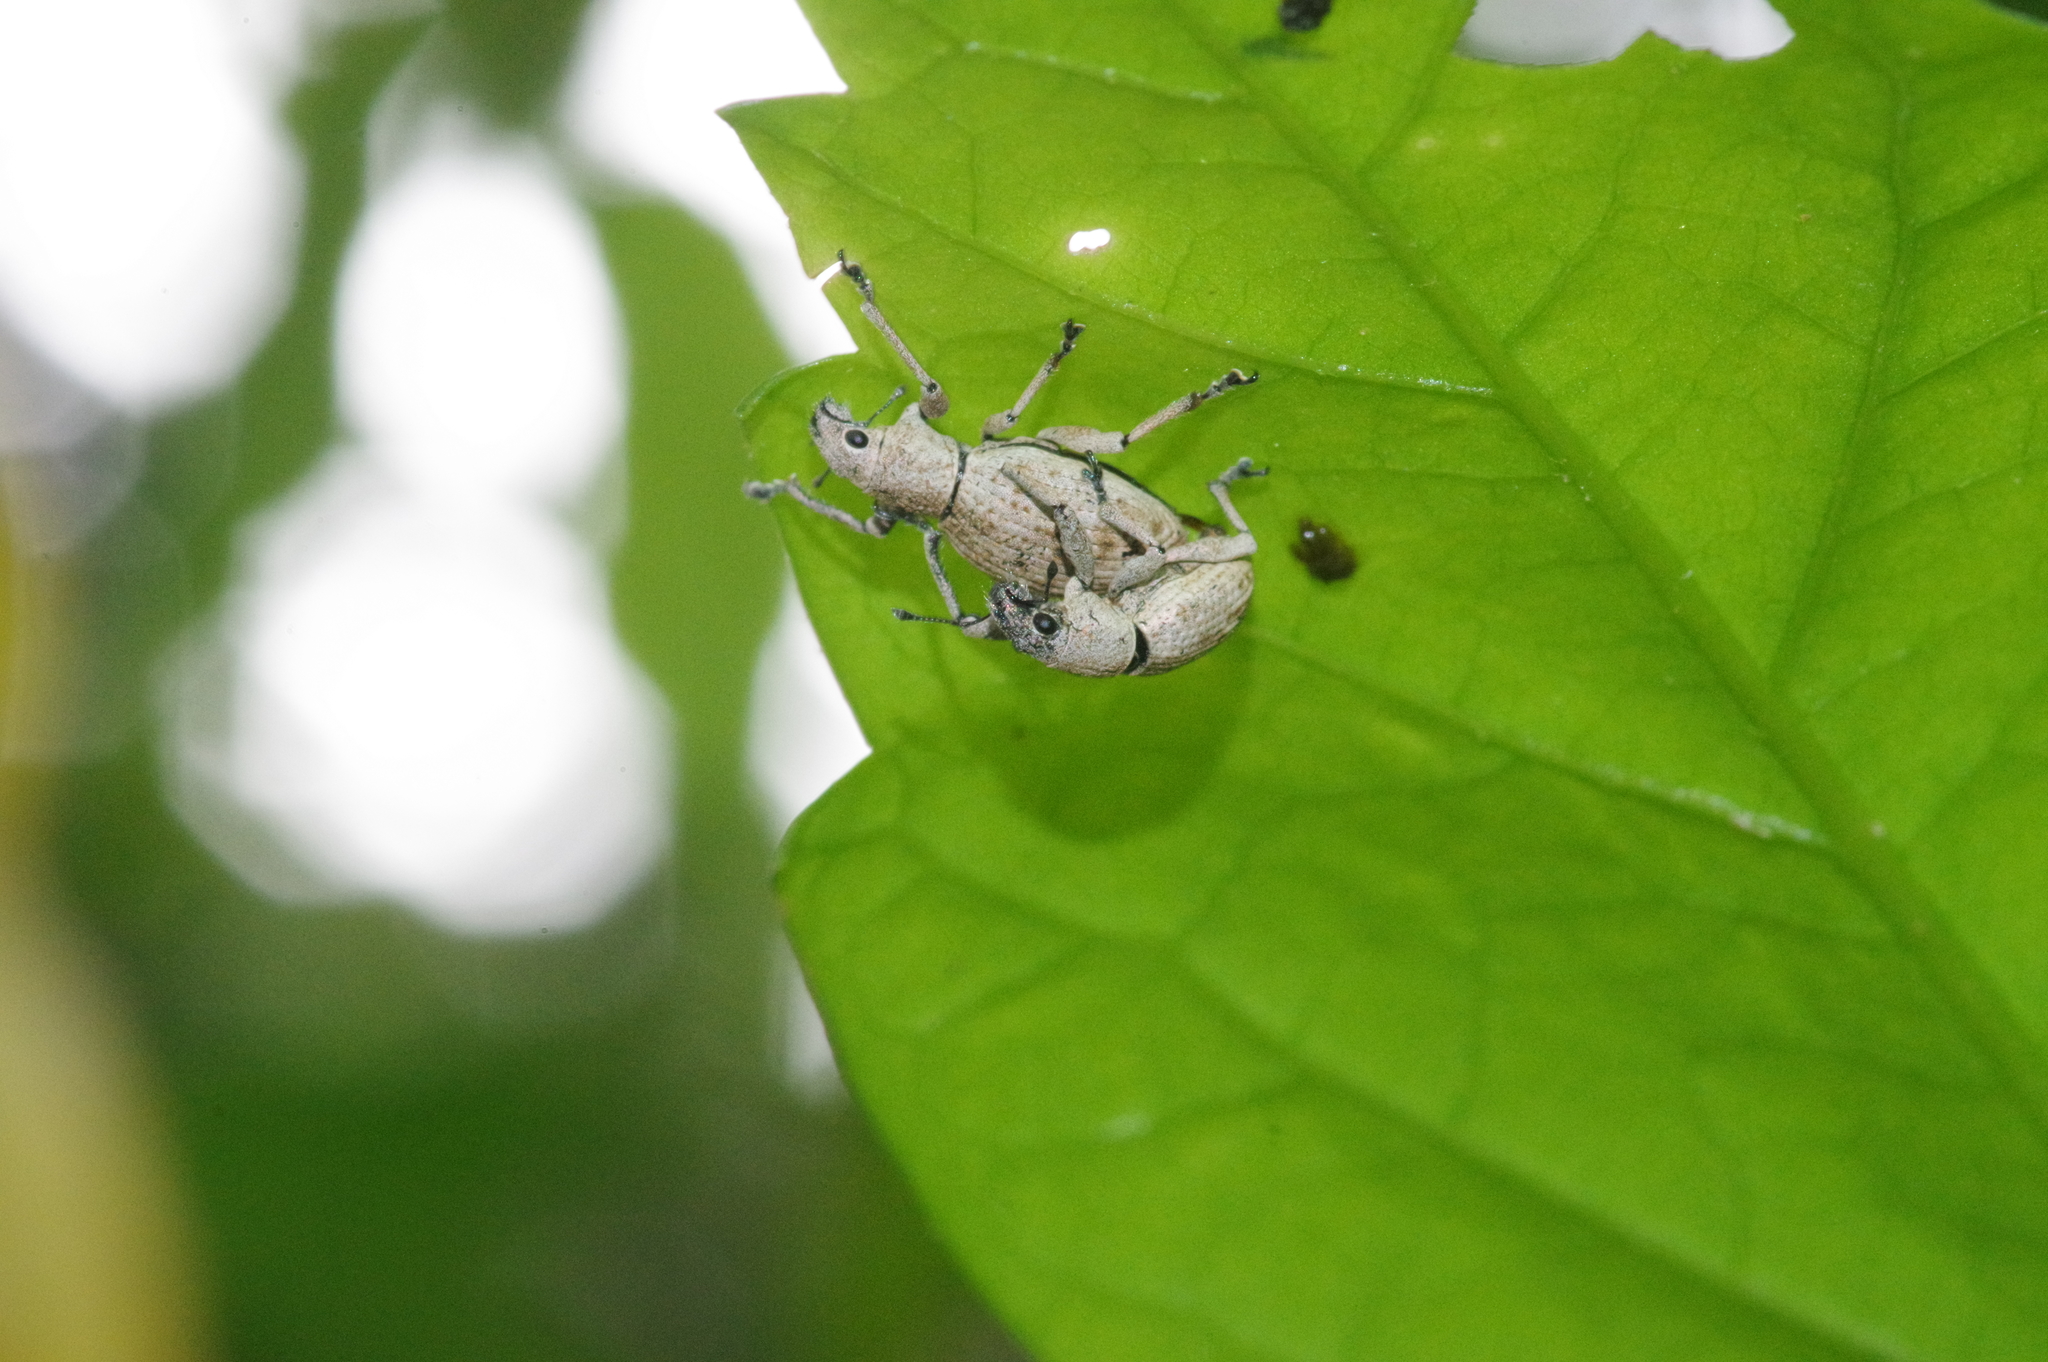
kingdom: Animalia
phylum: Arthropoda
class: Insecta
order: Coleoptera
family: Curculionidae
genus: Sympiezomias
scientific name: Sympiezomias cribricollis
